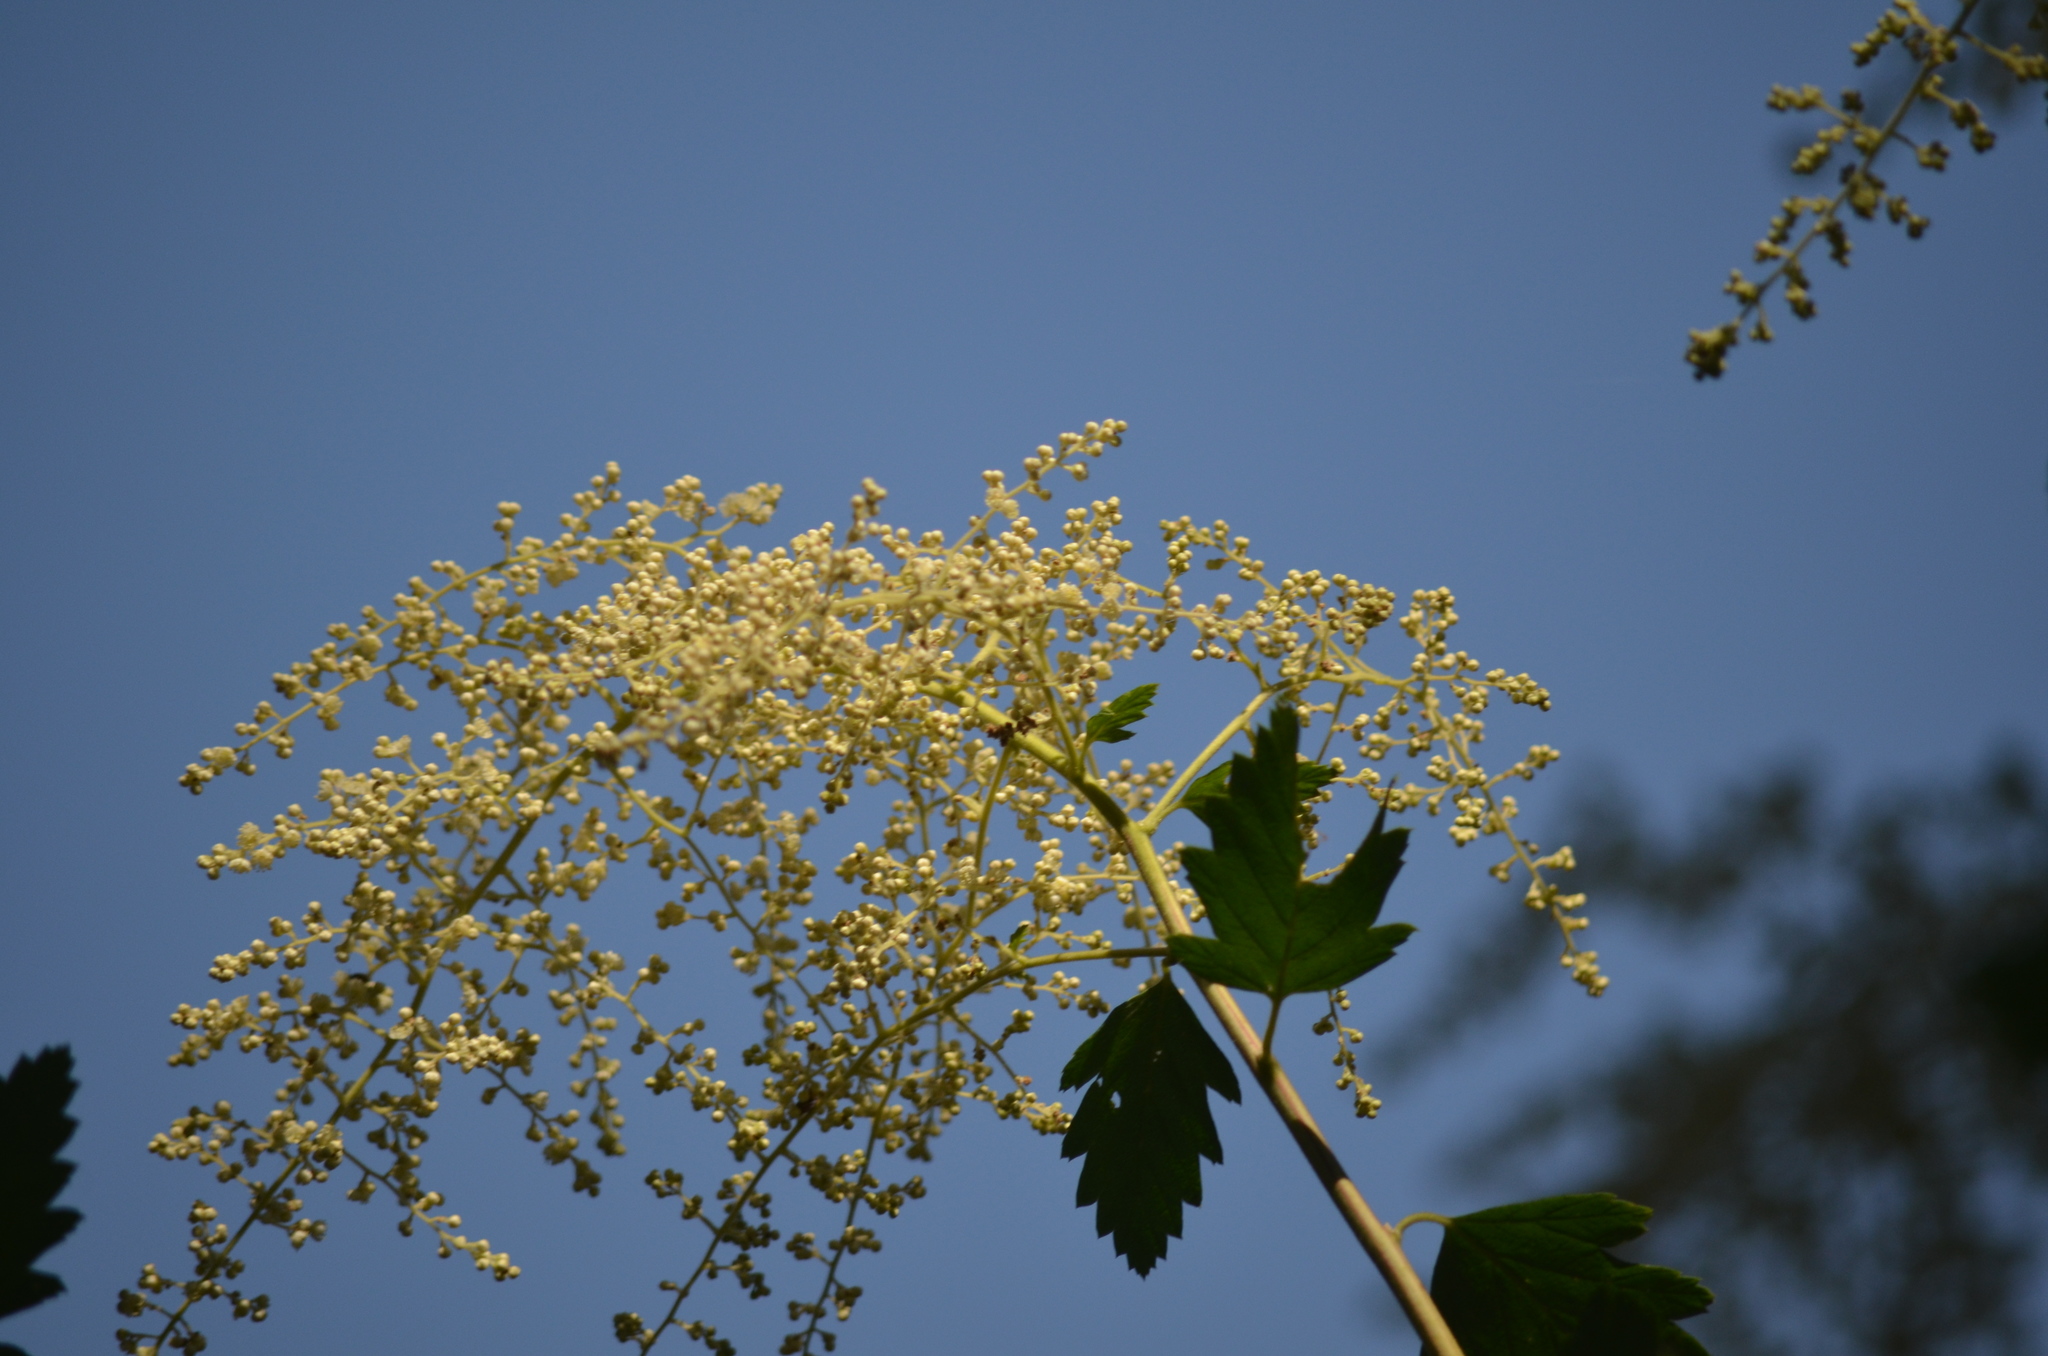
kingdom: Plantae
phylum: Tracheophyta
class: Magnoliopsida
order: Rosales
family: Rosaceae
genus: Holodiscus
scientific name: Holodiscus discolor
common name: Oceanspray
